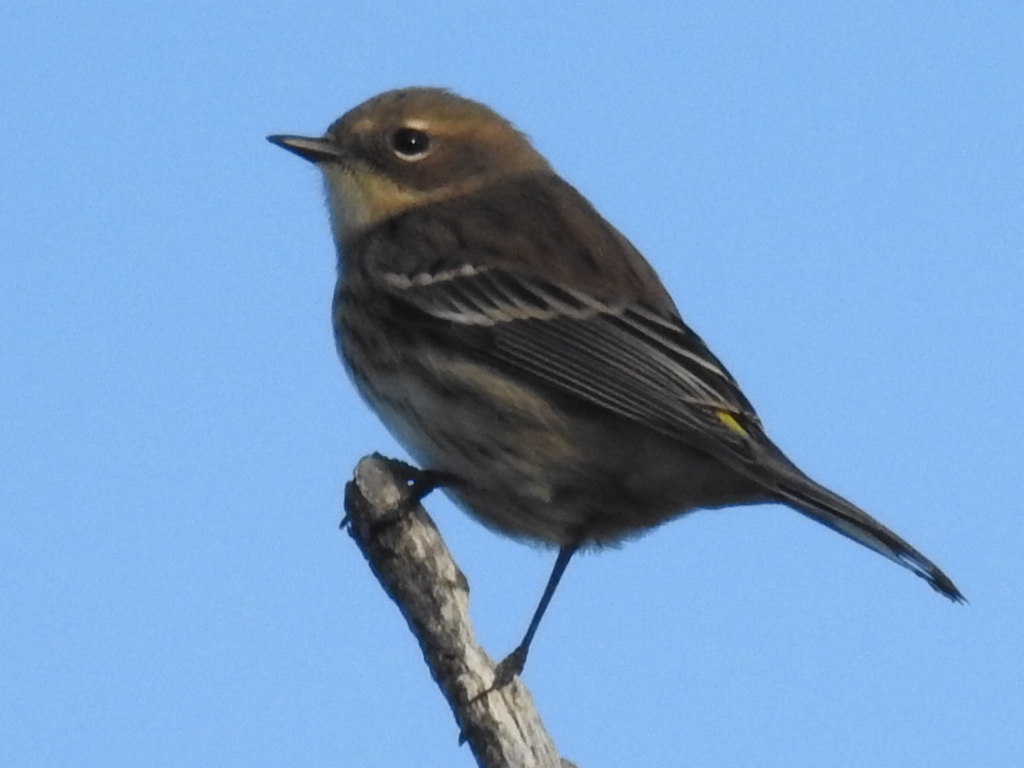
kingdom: Animalia
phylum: Chordata
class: Aves
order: Passeriformes
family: Parulidae
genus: Setophaga
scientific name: Setophaga coronata
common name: Myrtle warbler
